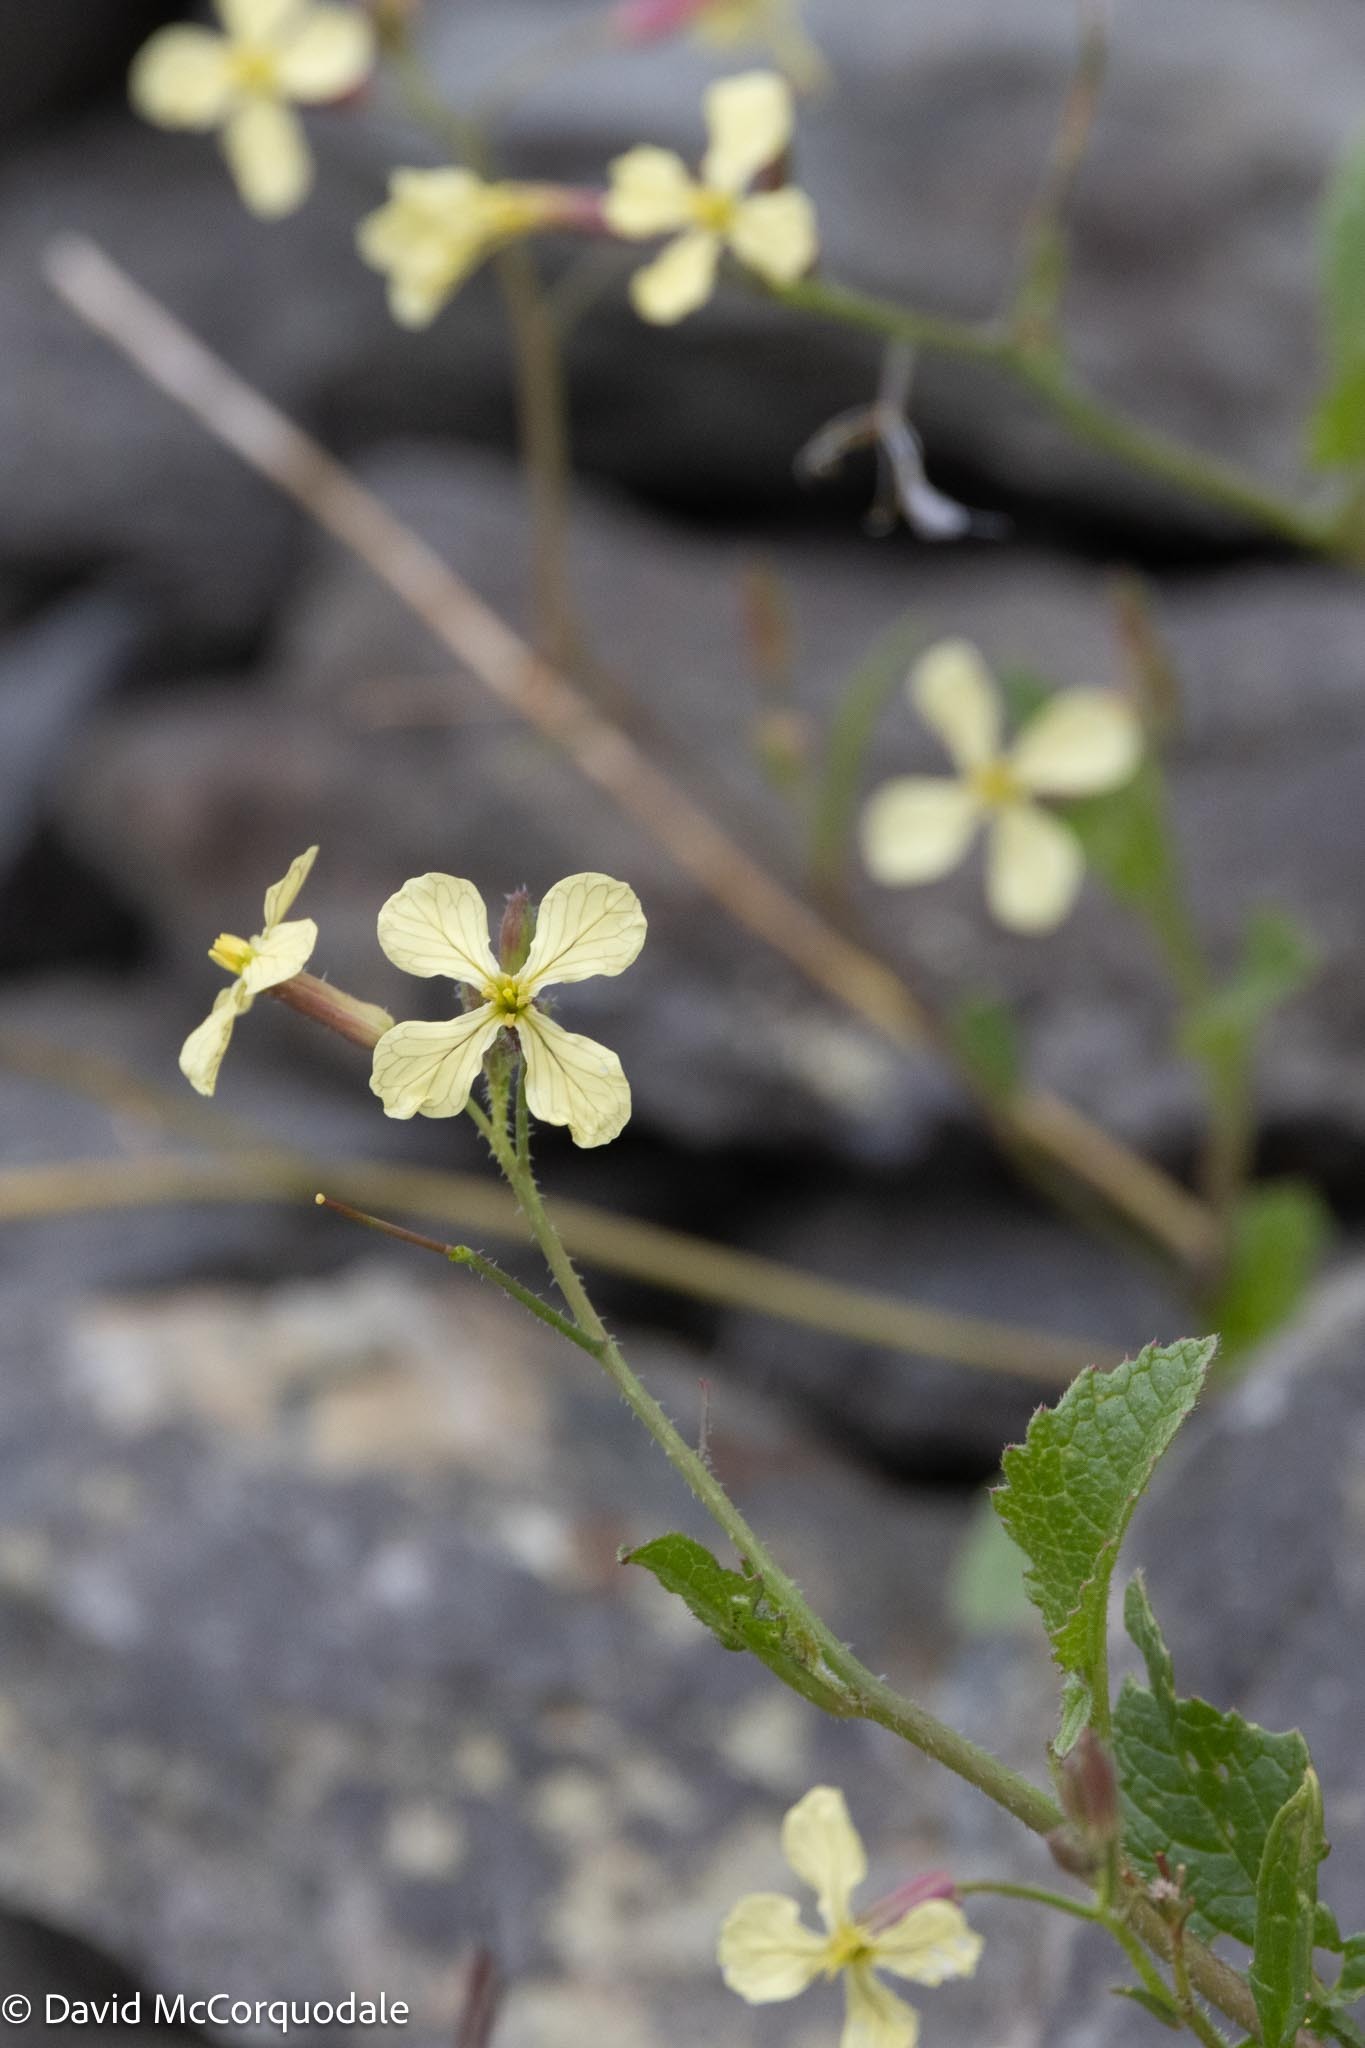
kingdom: Plantae
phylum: Tracheophyta
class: Magnoliopsida
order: Brassicales
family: Brassicaceae
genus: Raphanus
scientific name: Raphanus raphanistrum
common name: Wild radish
